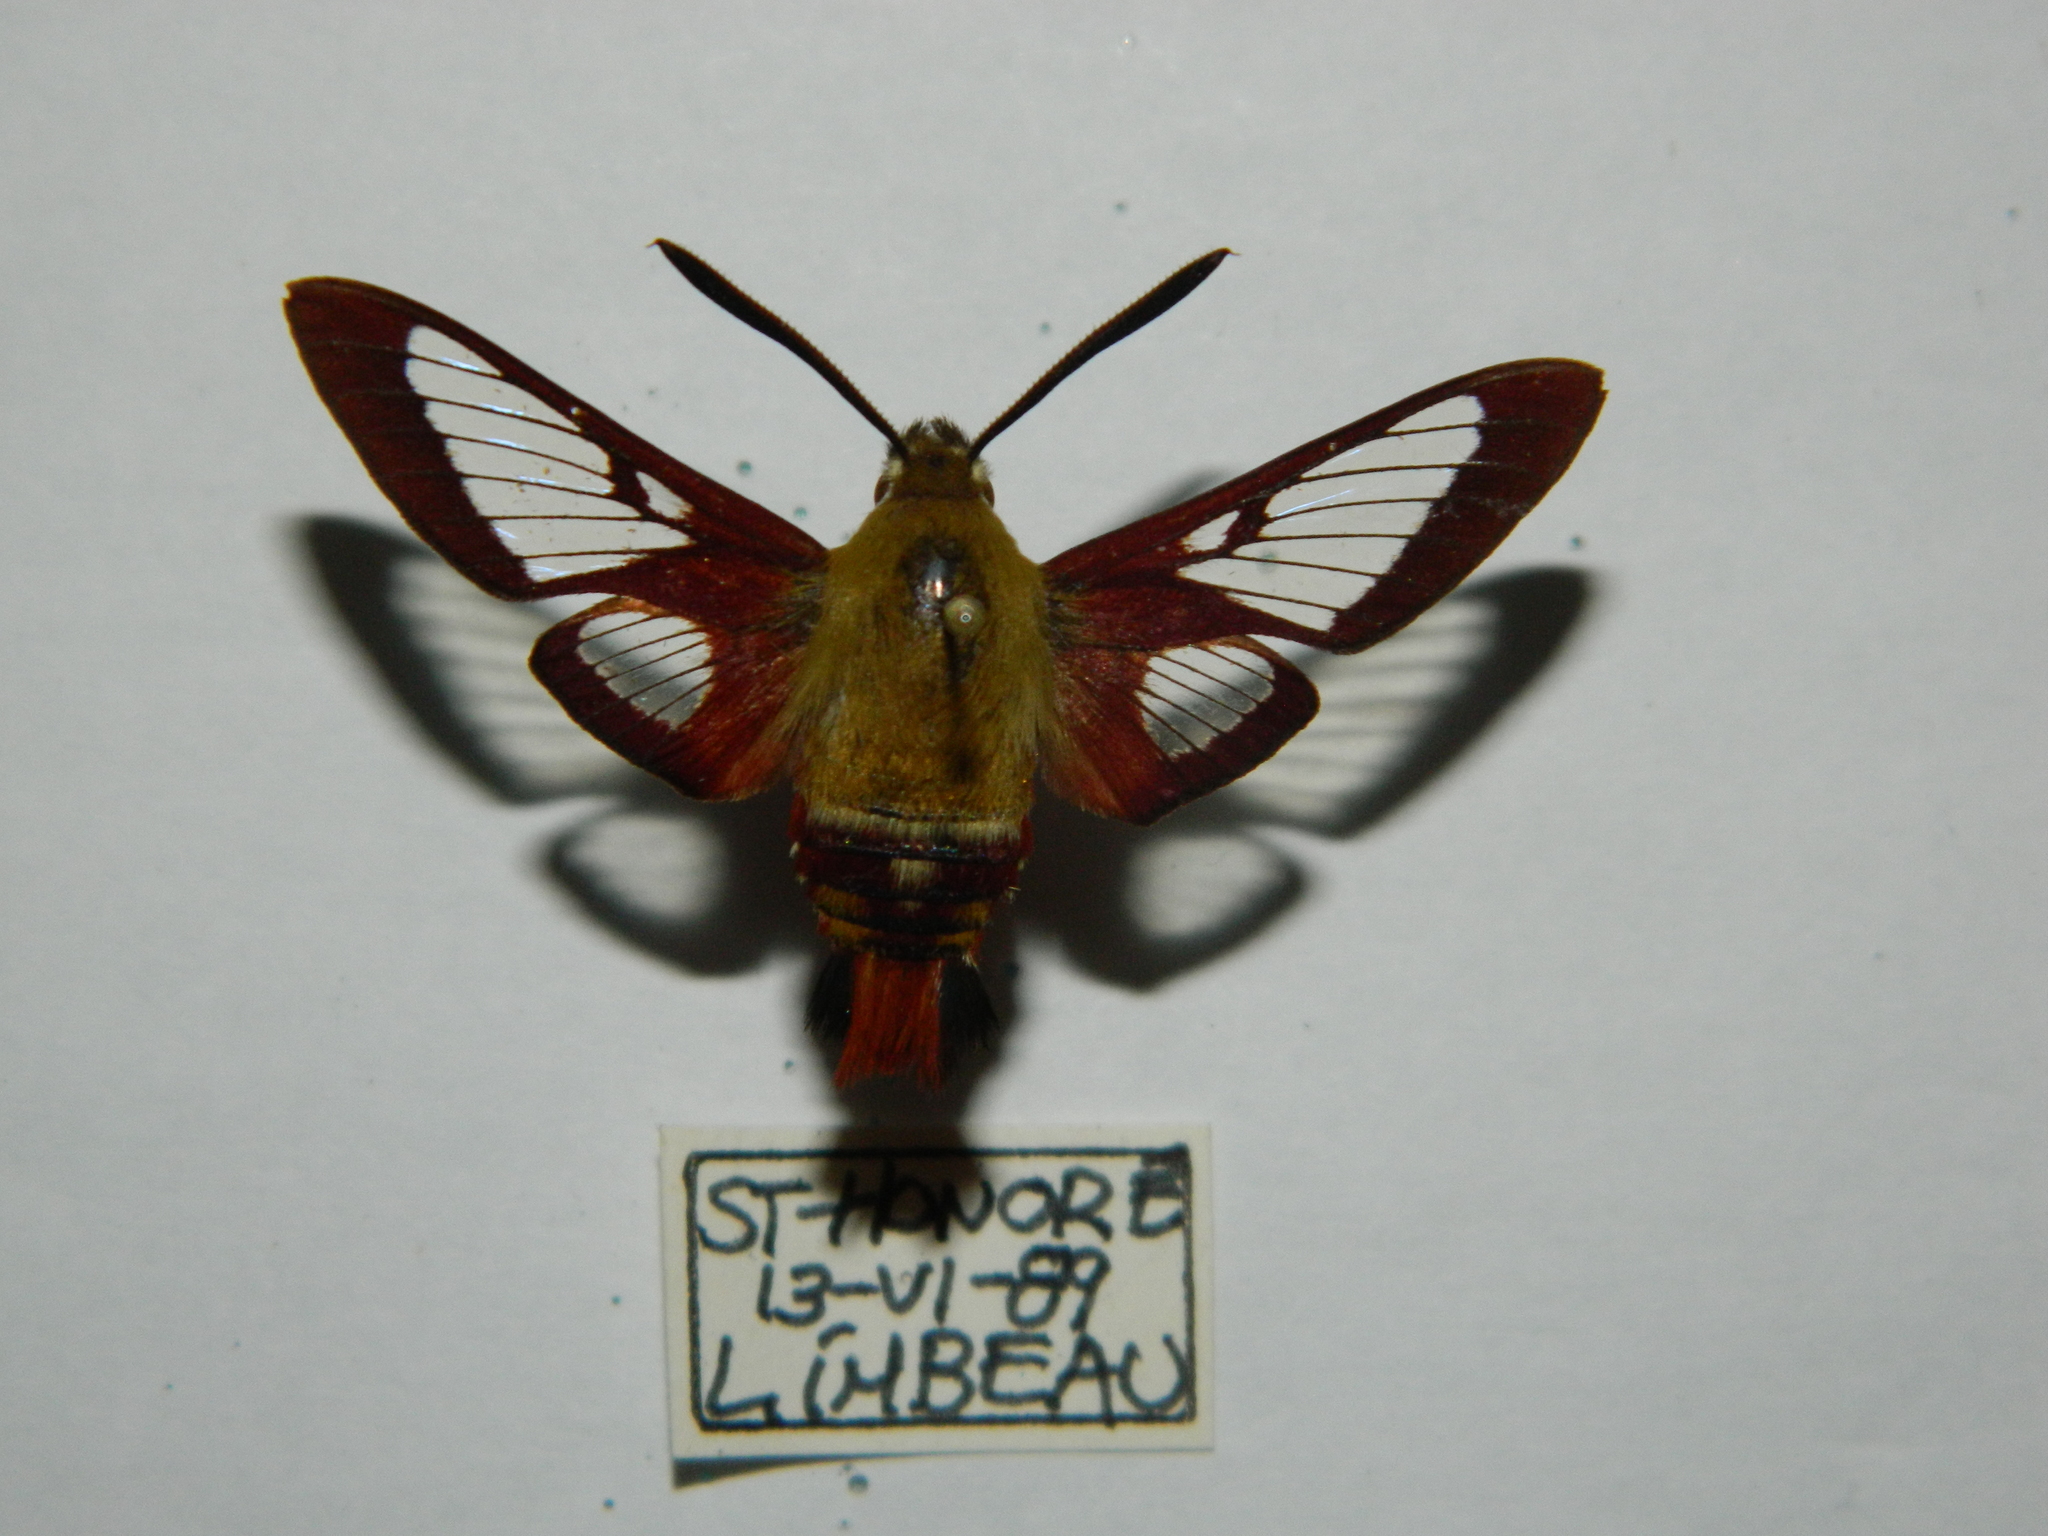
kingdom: Animalia
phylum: Arthropoda
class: Insecta
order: Lepidoptera
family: Sphingidae
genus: Hemaris
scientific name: Hemaris gracilis
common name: Graceful clearwing
